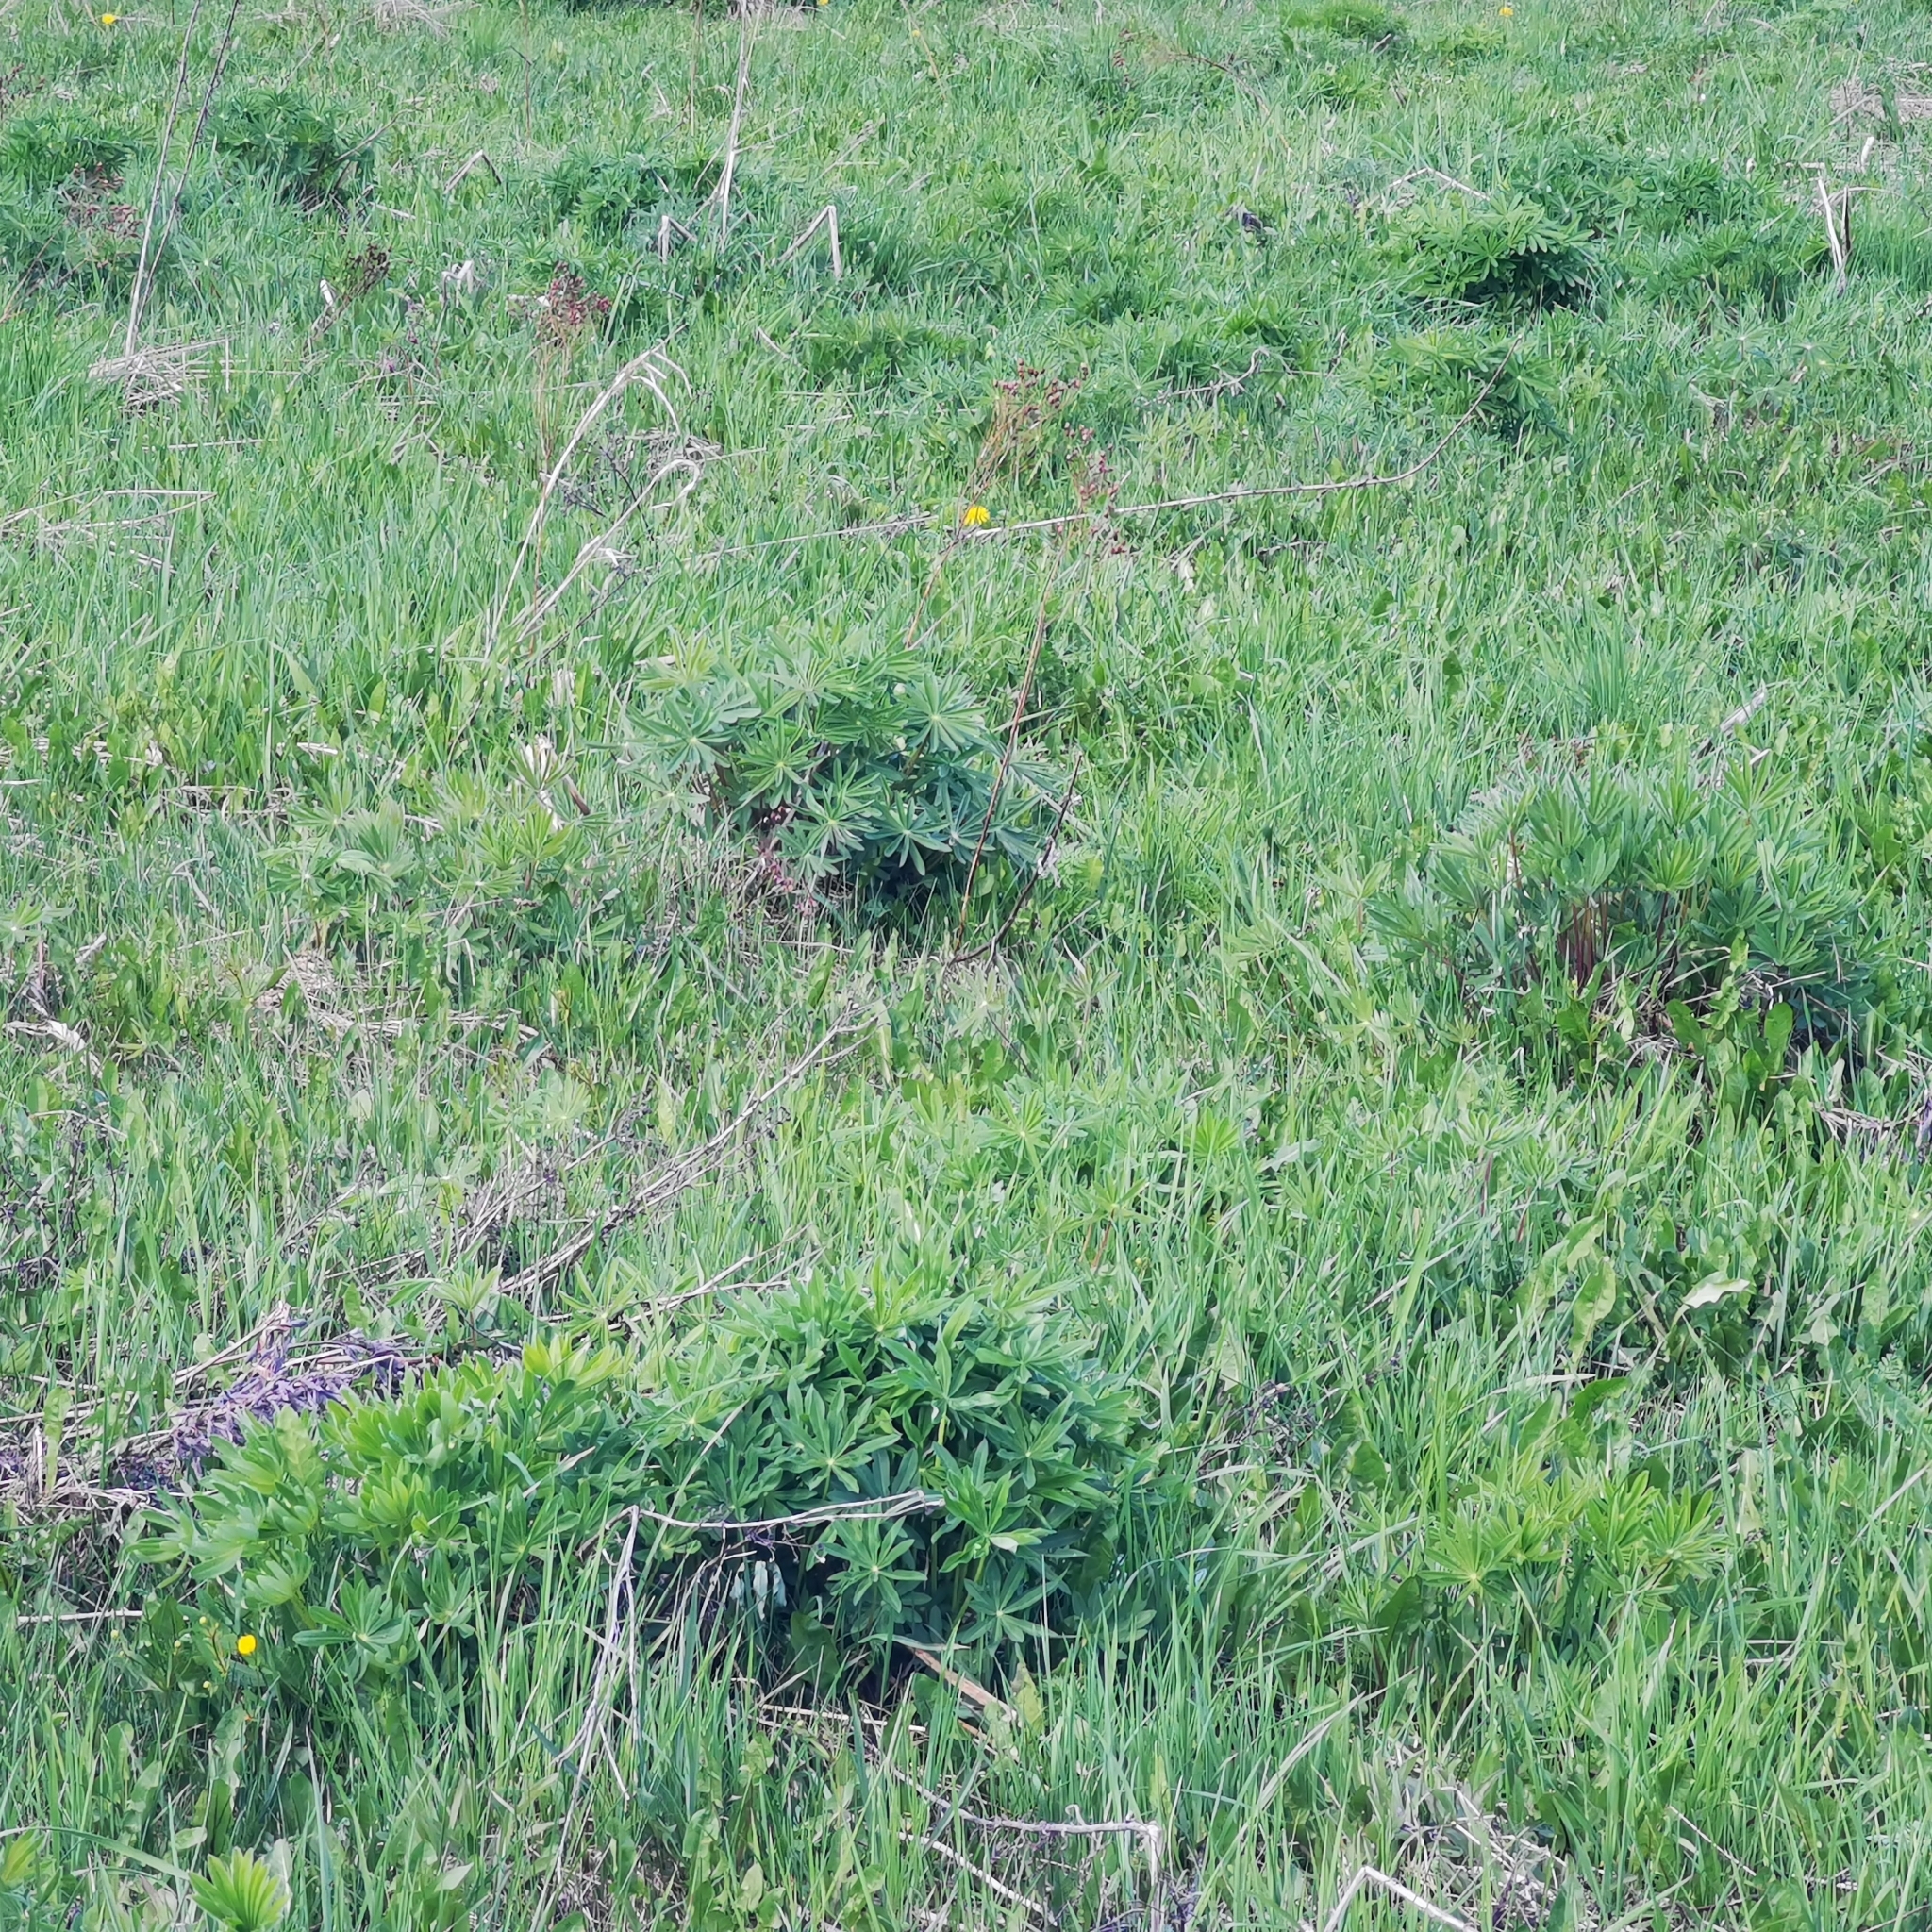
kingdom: Plantae
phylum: Tracheophyta
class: Magnoliopsida
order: Fabales
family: Fabaceae
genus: Lupinus
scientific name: Lupinus polyphyllus
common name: Garden lupin
